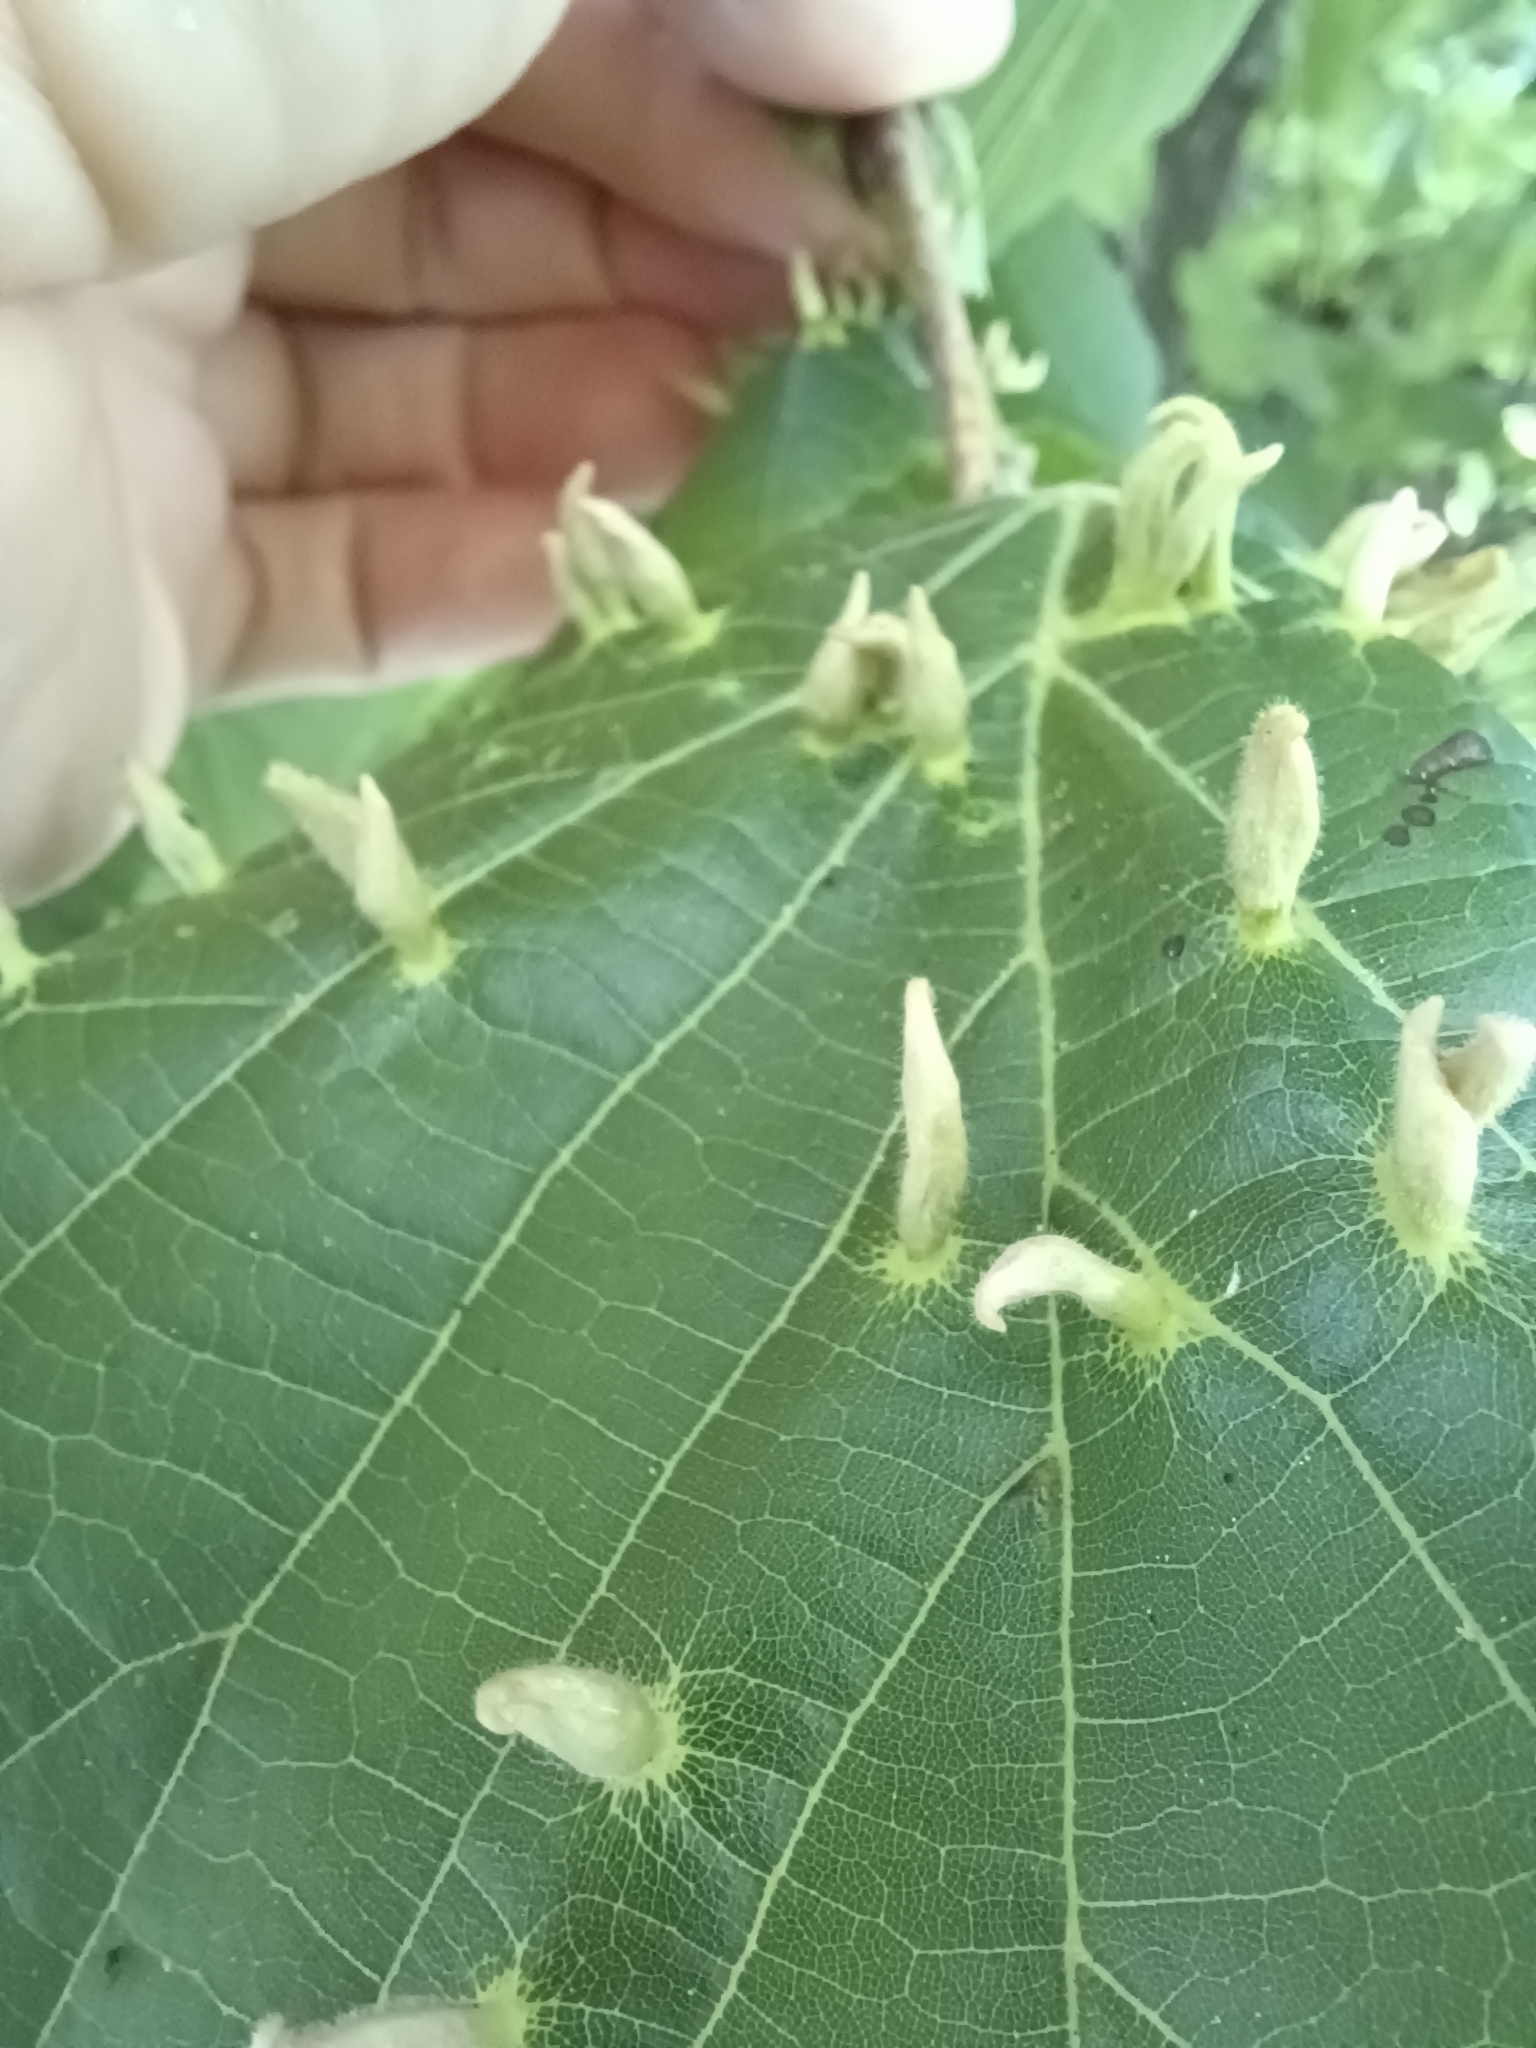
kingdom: Animalia
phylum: Arthropoda
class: Arachnida
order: Trombidiformes
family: Eriophyidae
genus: Eriophyes
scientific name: Eriophyes tiliae
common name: Red nail gall mite
